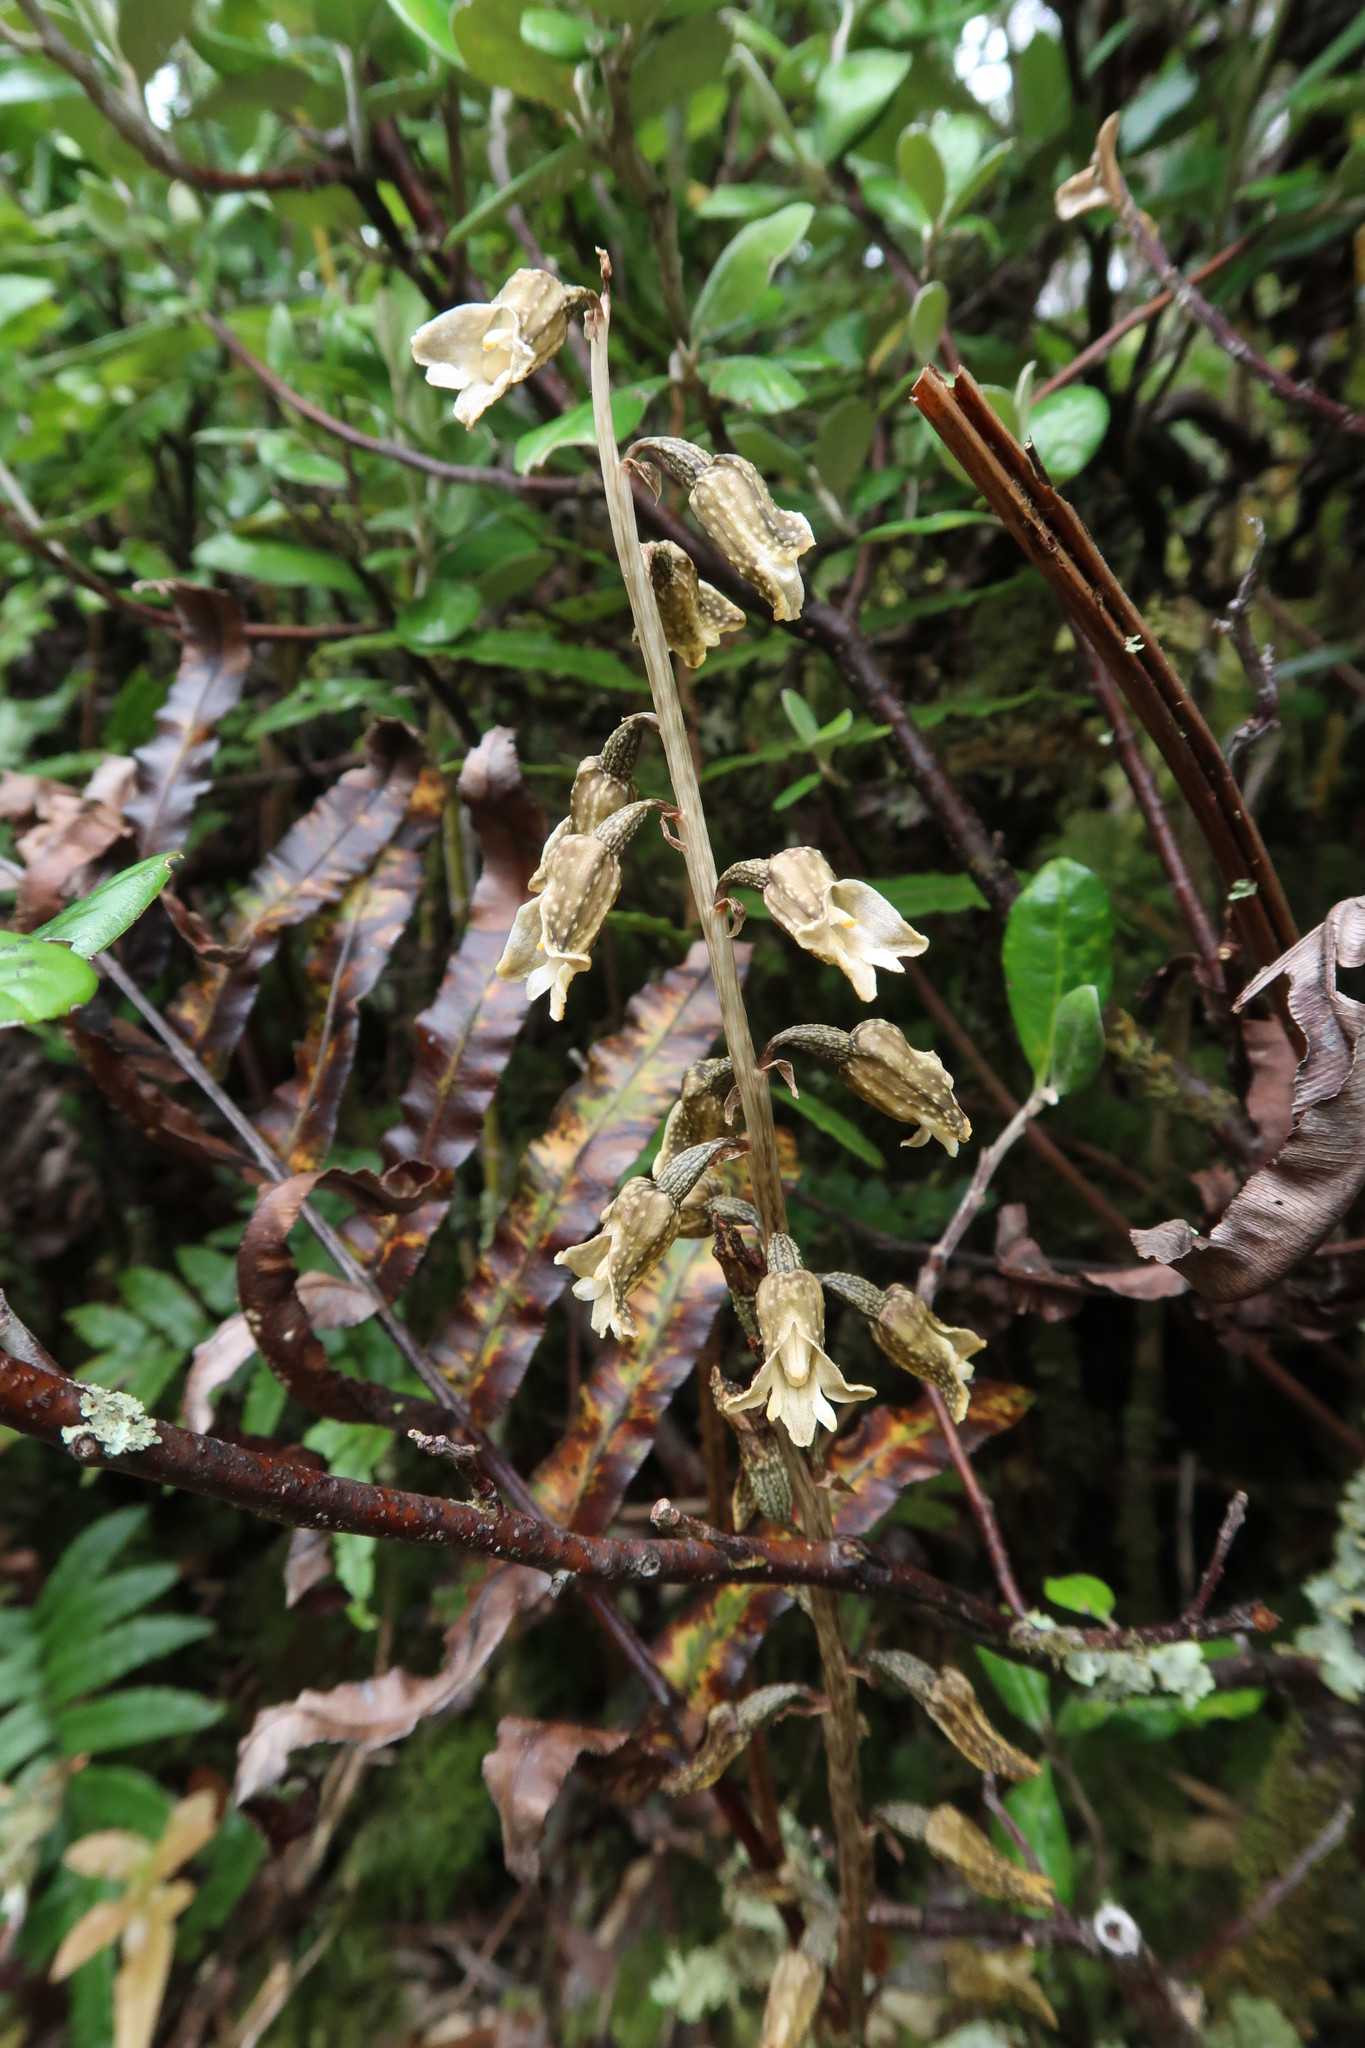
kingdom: Plantae
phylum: Tracheophyta
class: Liliopsida
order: Asparagales
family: Orchidaceae
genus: Gastrodia
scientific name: Gastrodia molloyi
